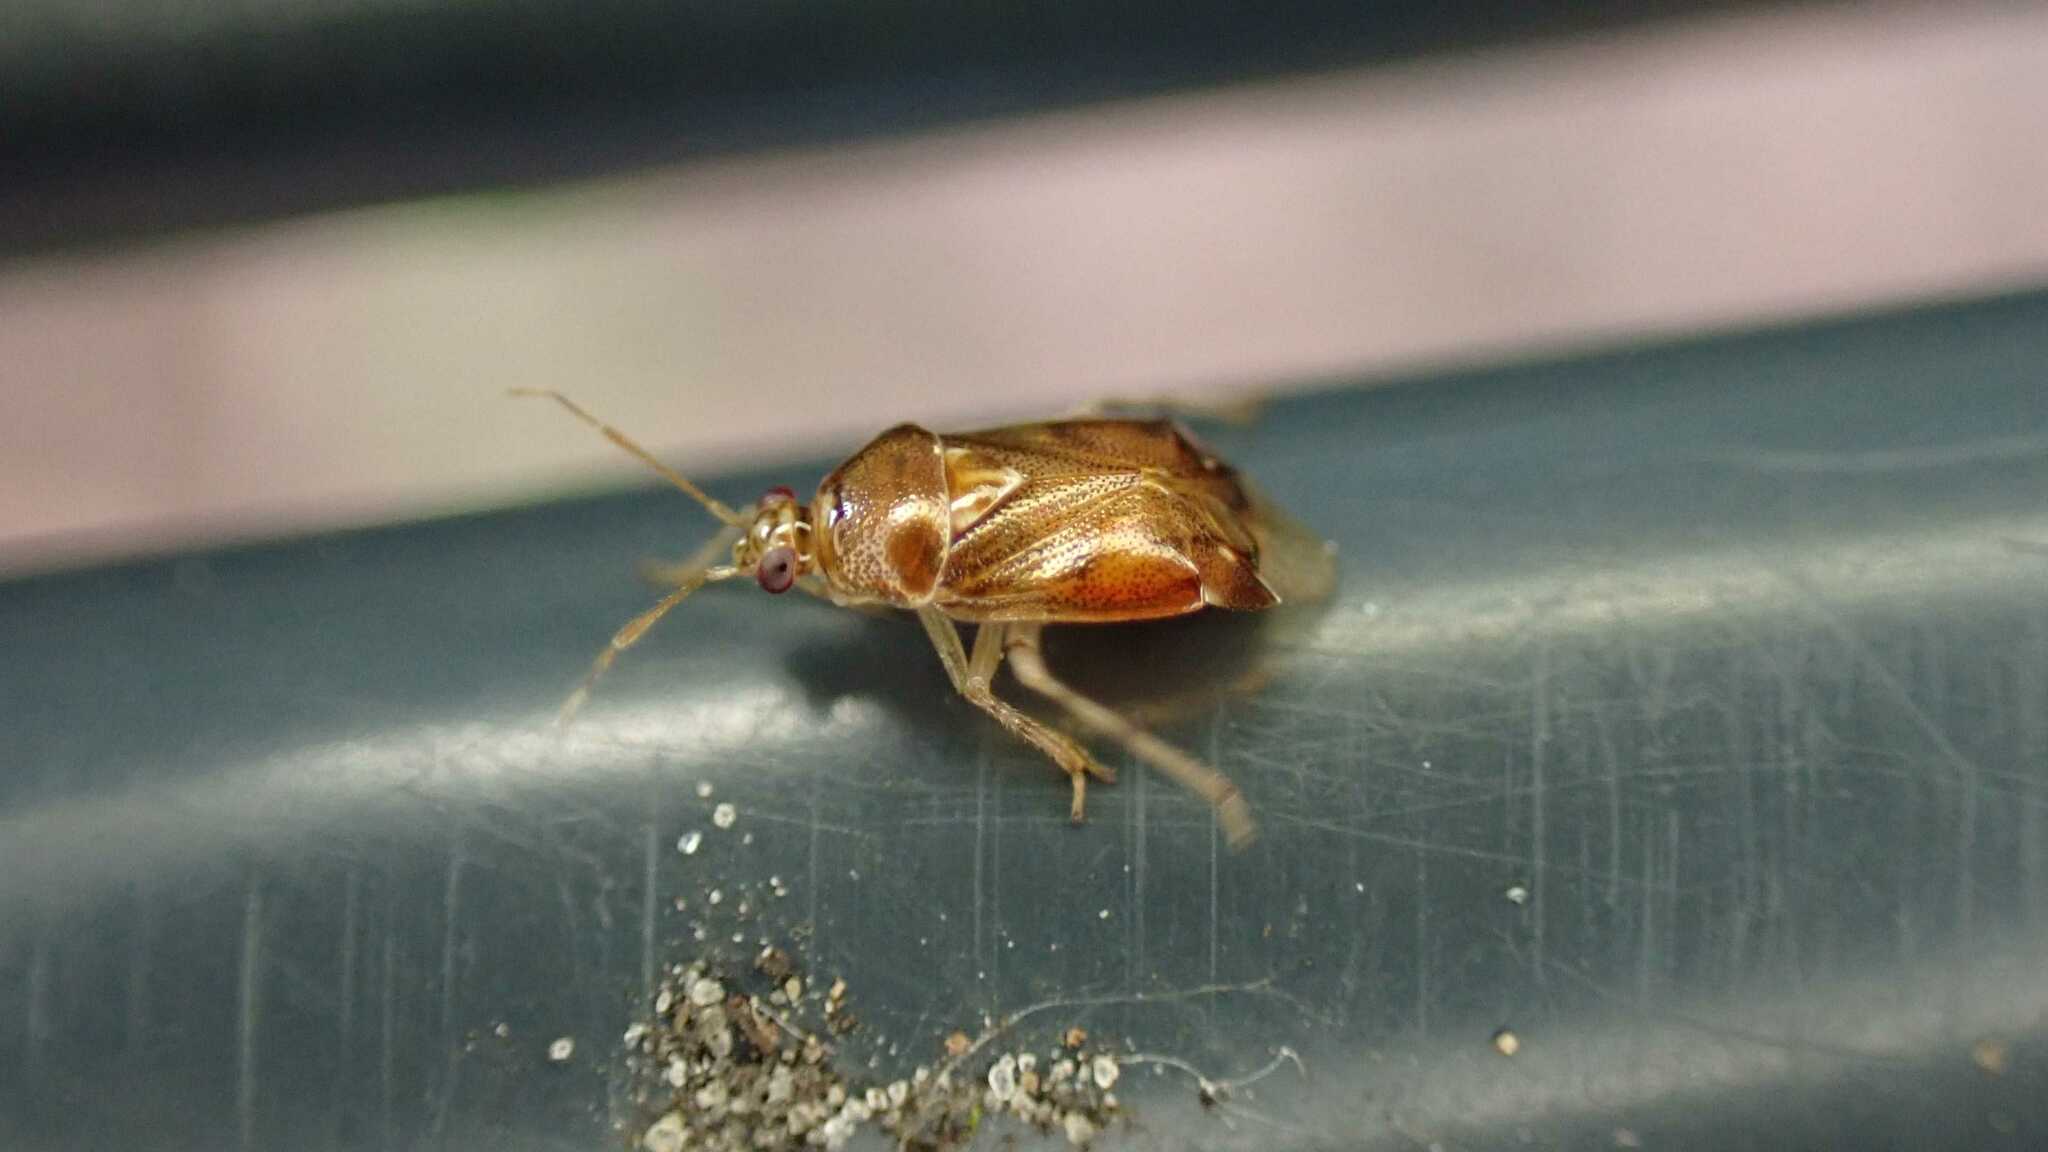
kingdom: Animalia
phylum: Arthropoda
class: Insecta
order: Hemiptera
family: Miridae
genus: Deraeocoris
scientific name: Deraeocoris lutescens
